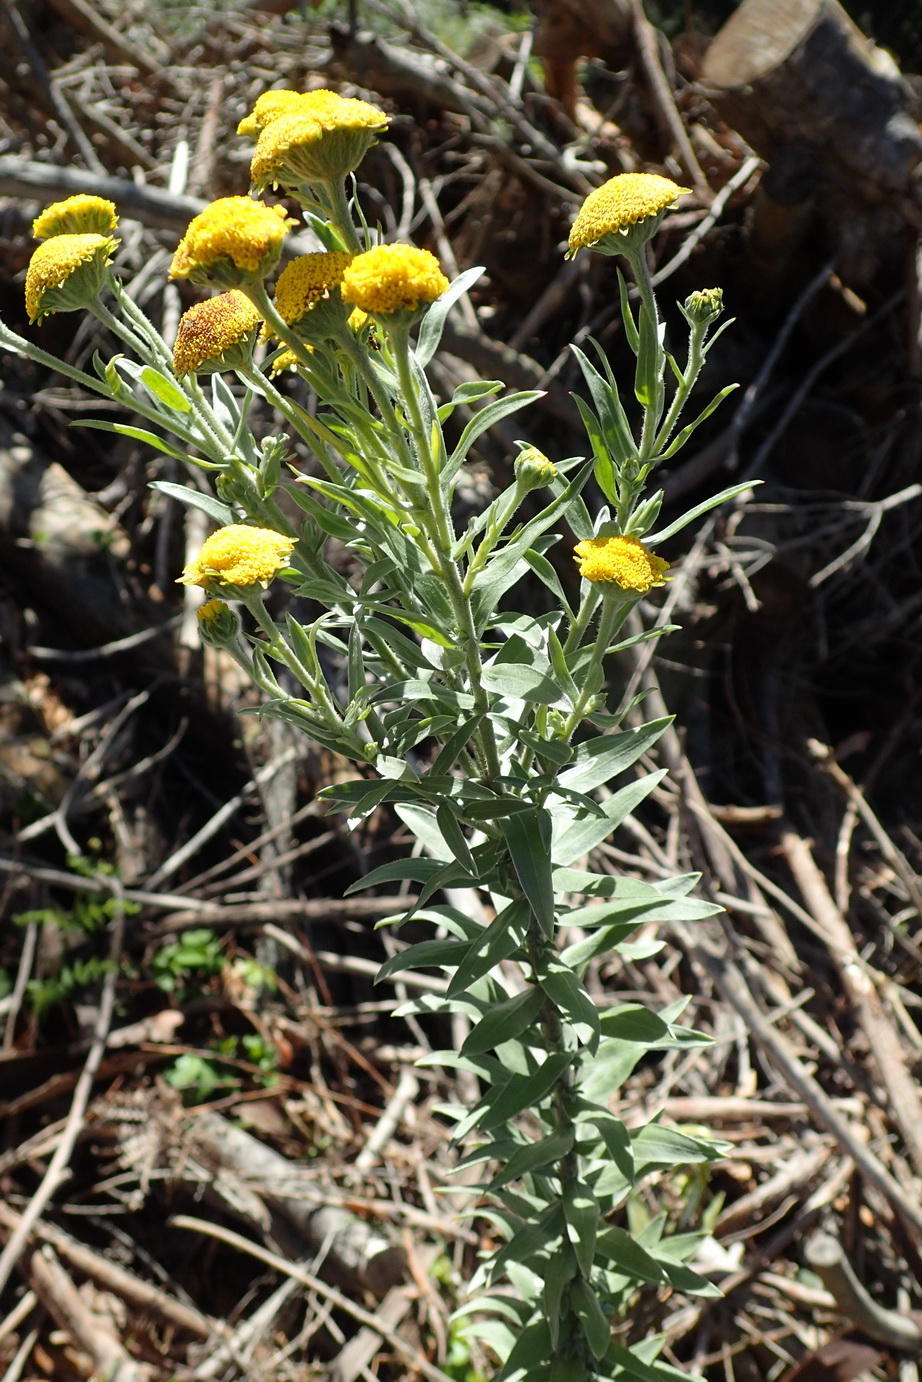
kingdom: Plantae
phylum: Tracheophyta
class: Magnoliopsida
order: Asterales
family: Asteraceae
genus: Schistostephium
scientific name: Schistostephium umbellatum
